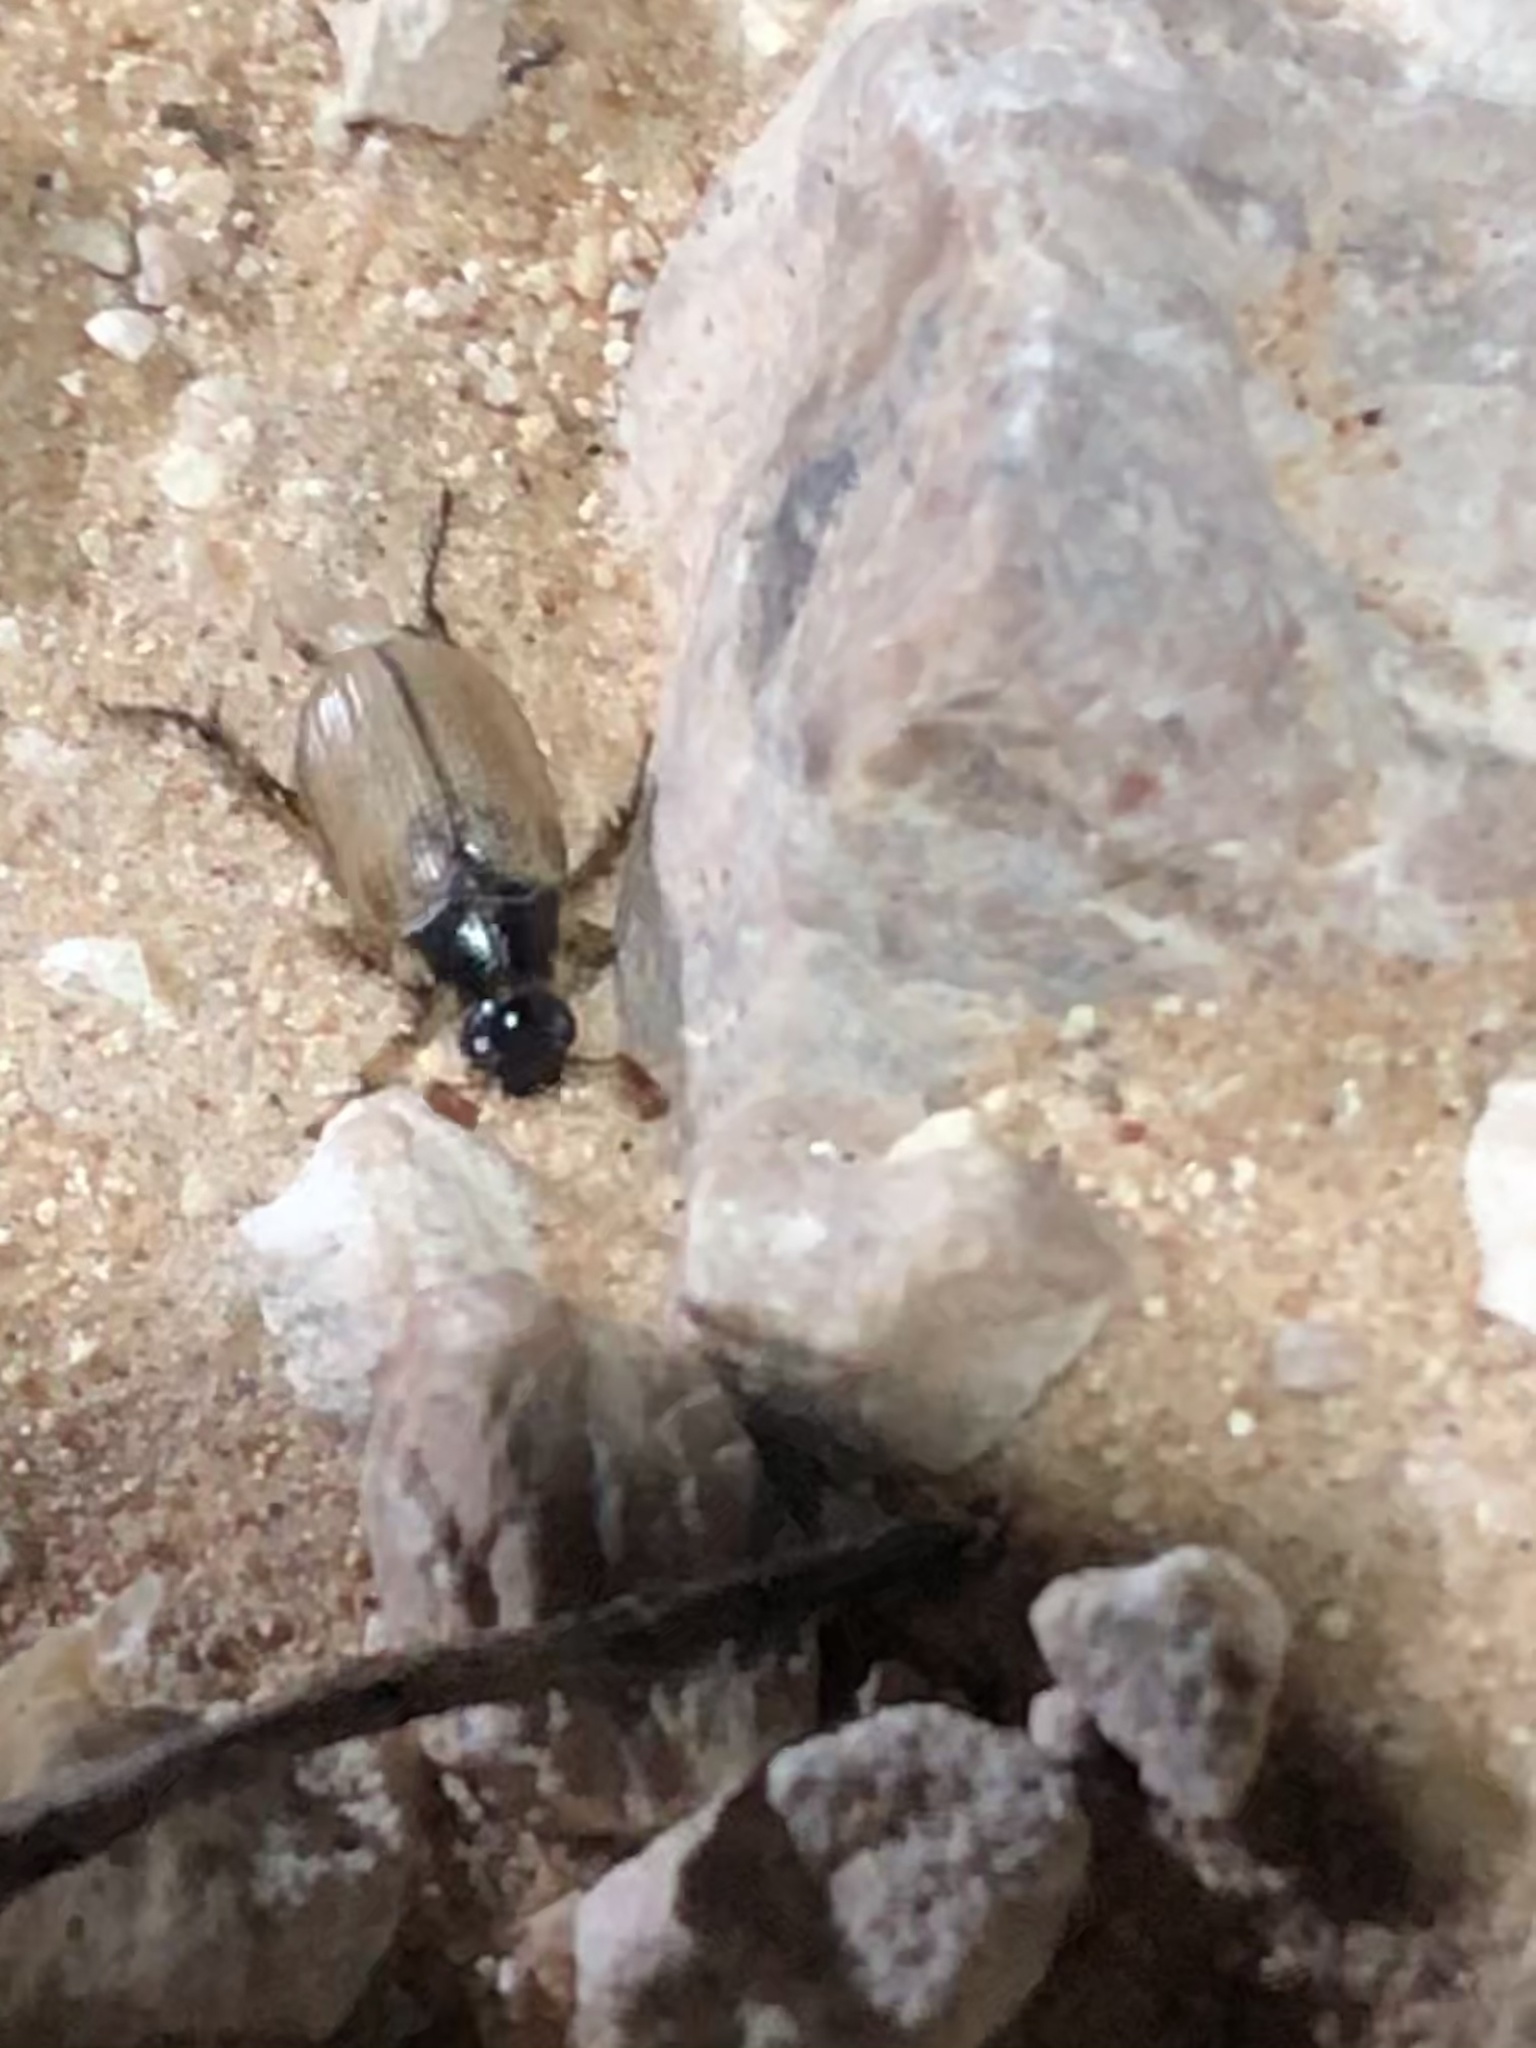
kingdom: Animalia
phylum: Arthropoda
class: Insecta
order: Coleoptera
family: Scarabaeidae
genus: Paranomala
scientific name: Paranomala suavis
